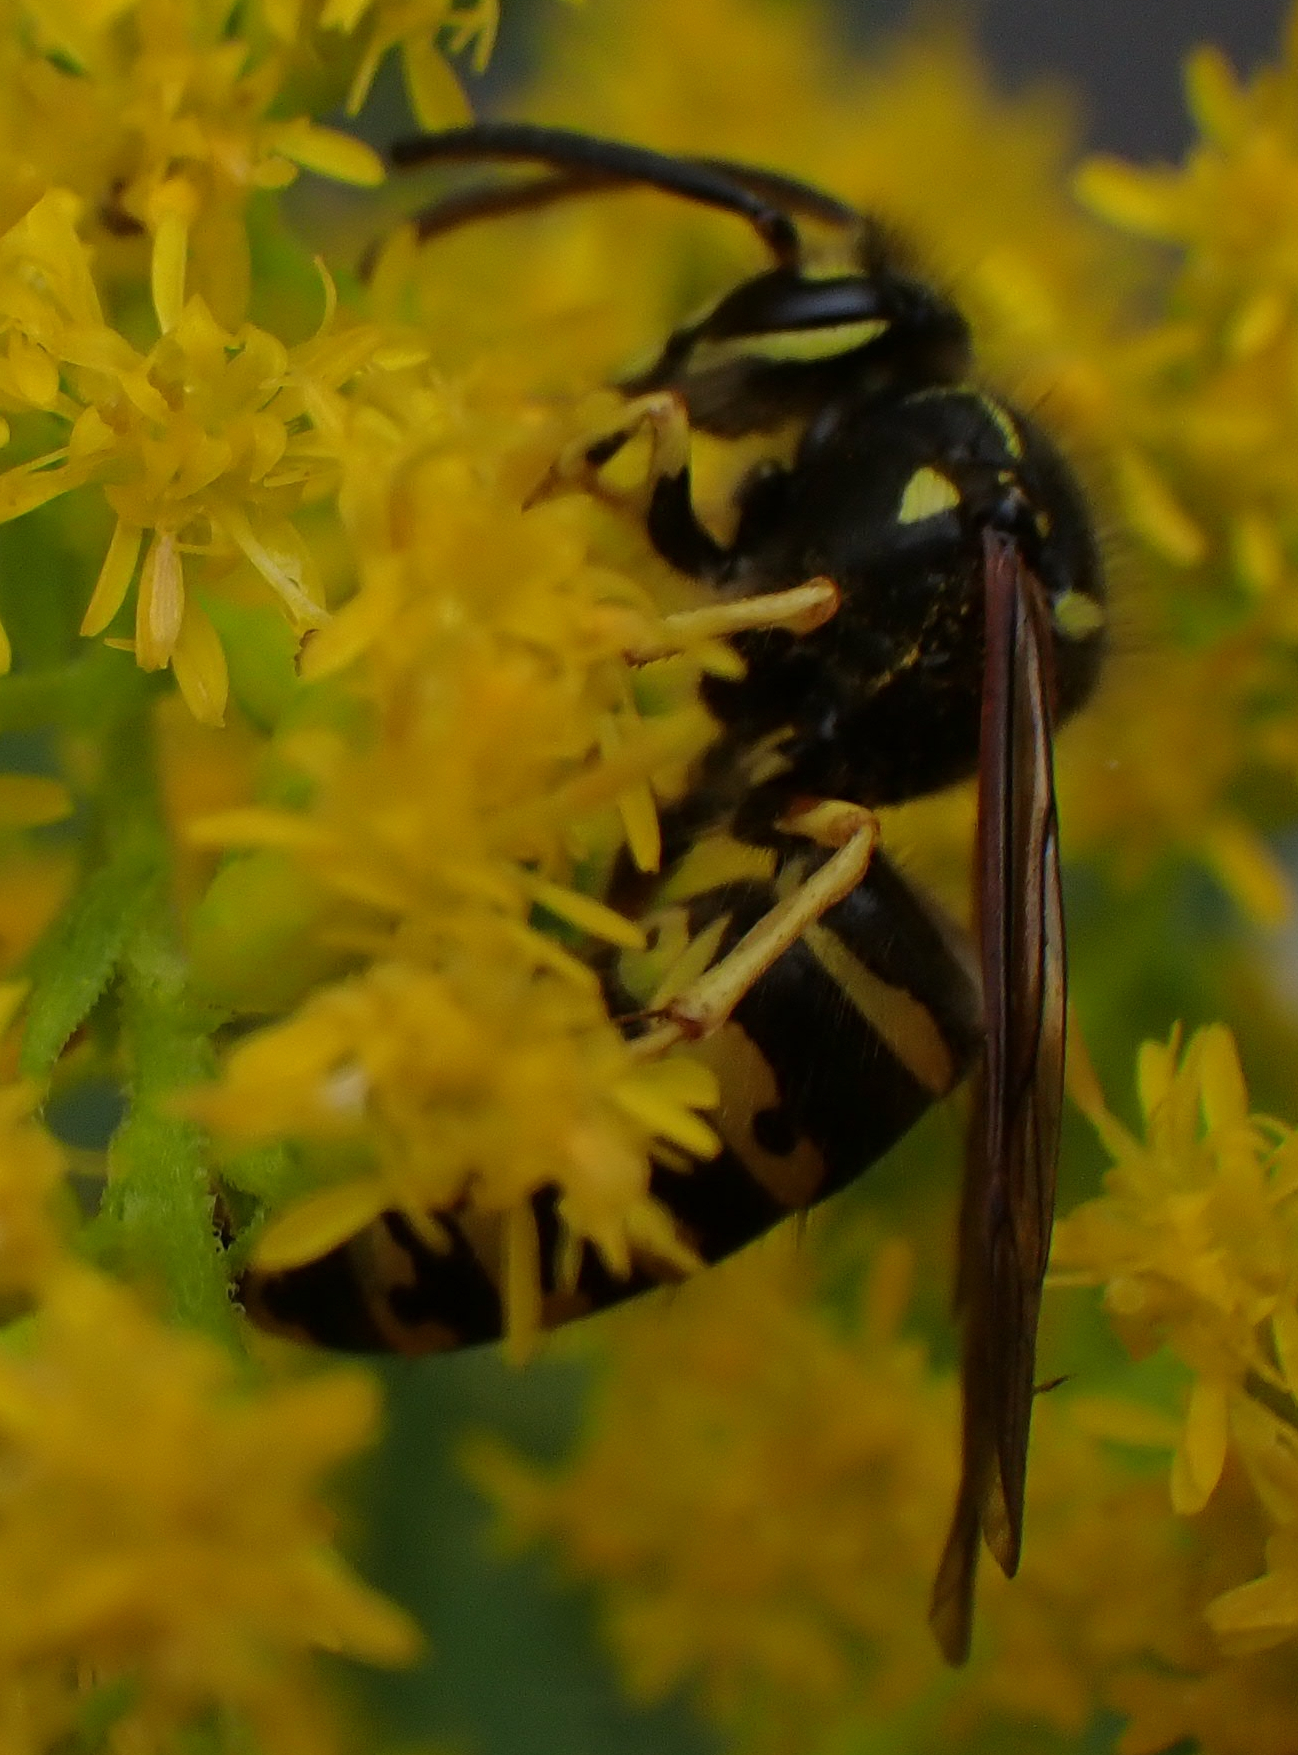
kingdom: Animalia
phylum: Arthropoda
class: Insecta
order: Hymenoptera
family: Vespidae
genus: Dolichovespula
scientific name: Dolichovespula arenaria
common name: Aerial yellowjacket
